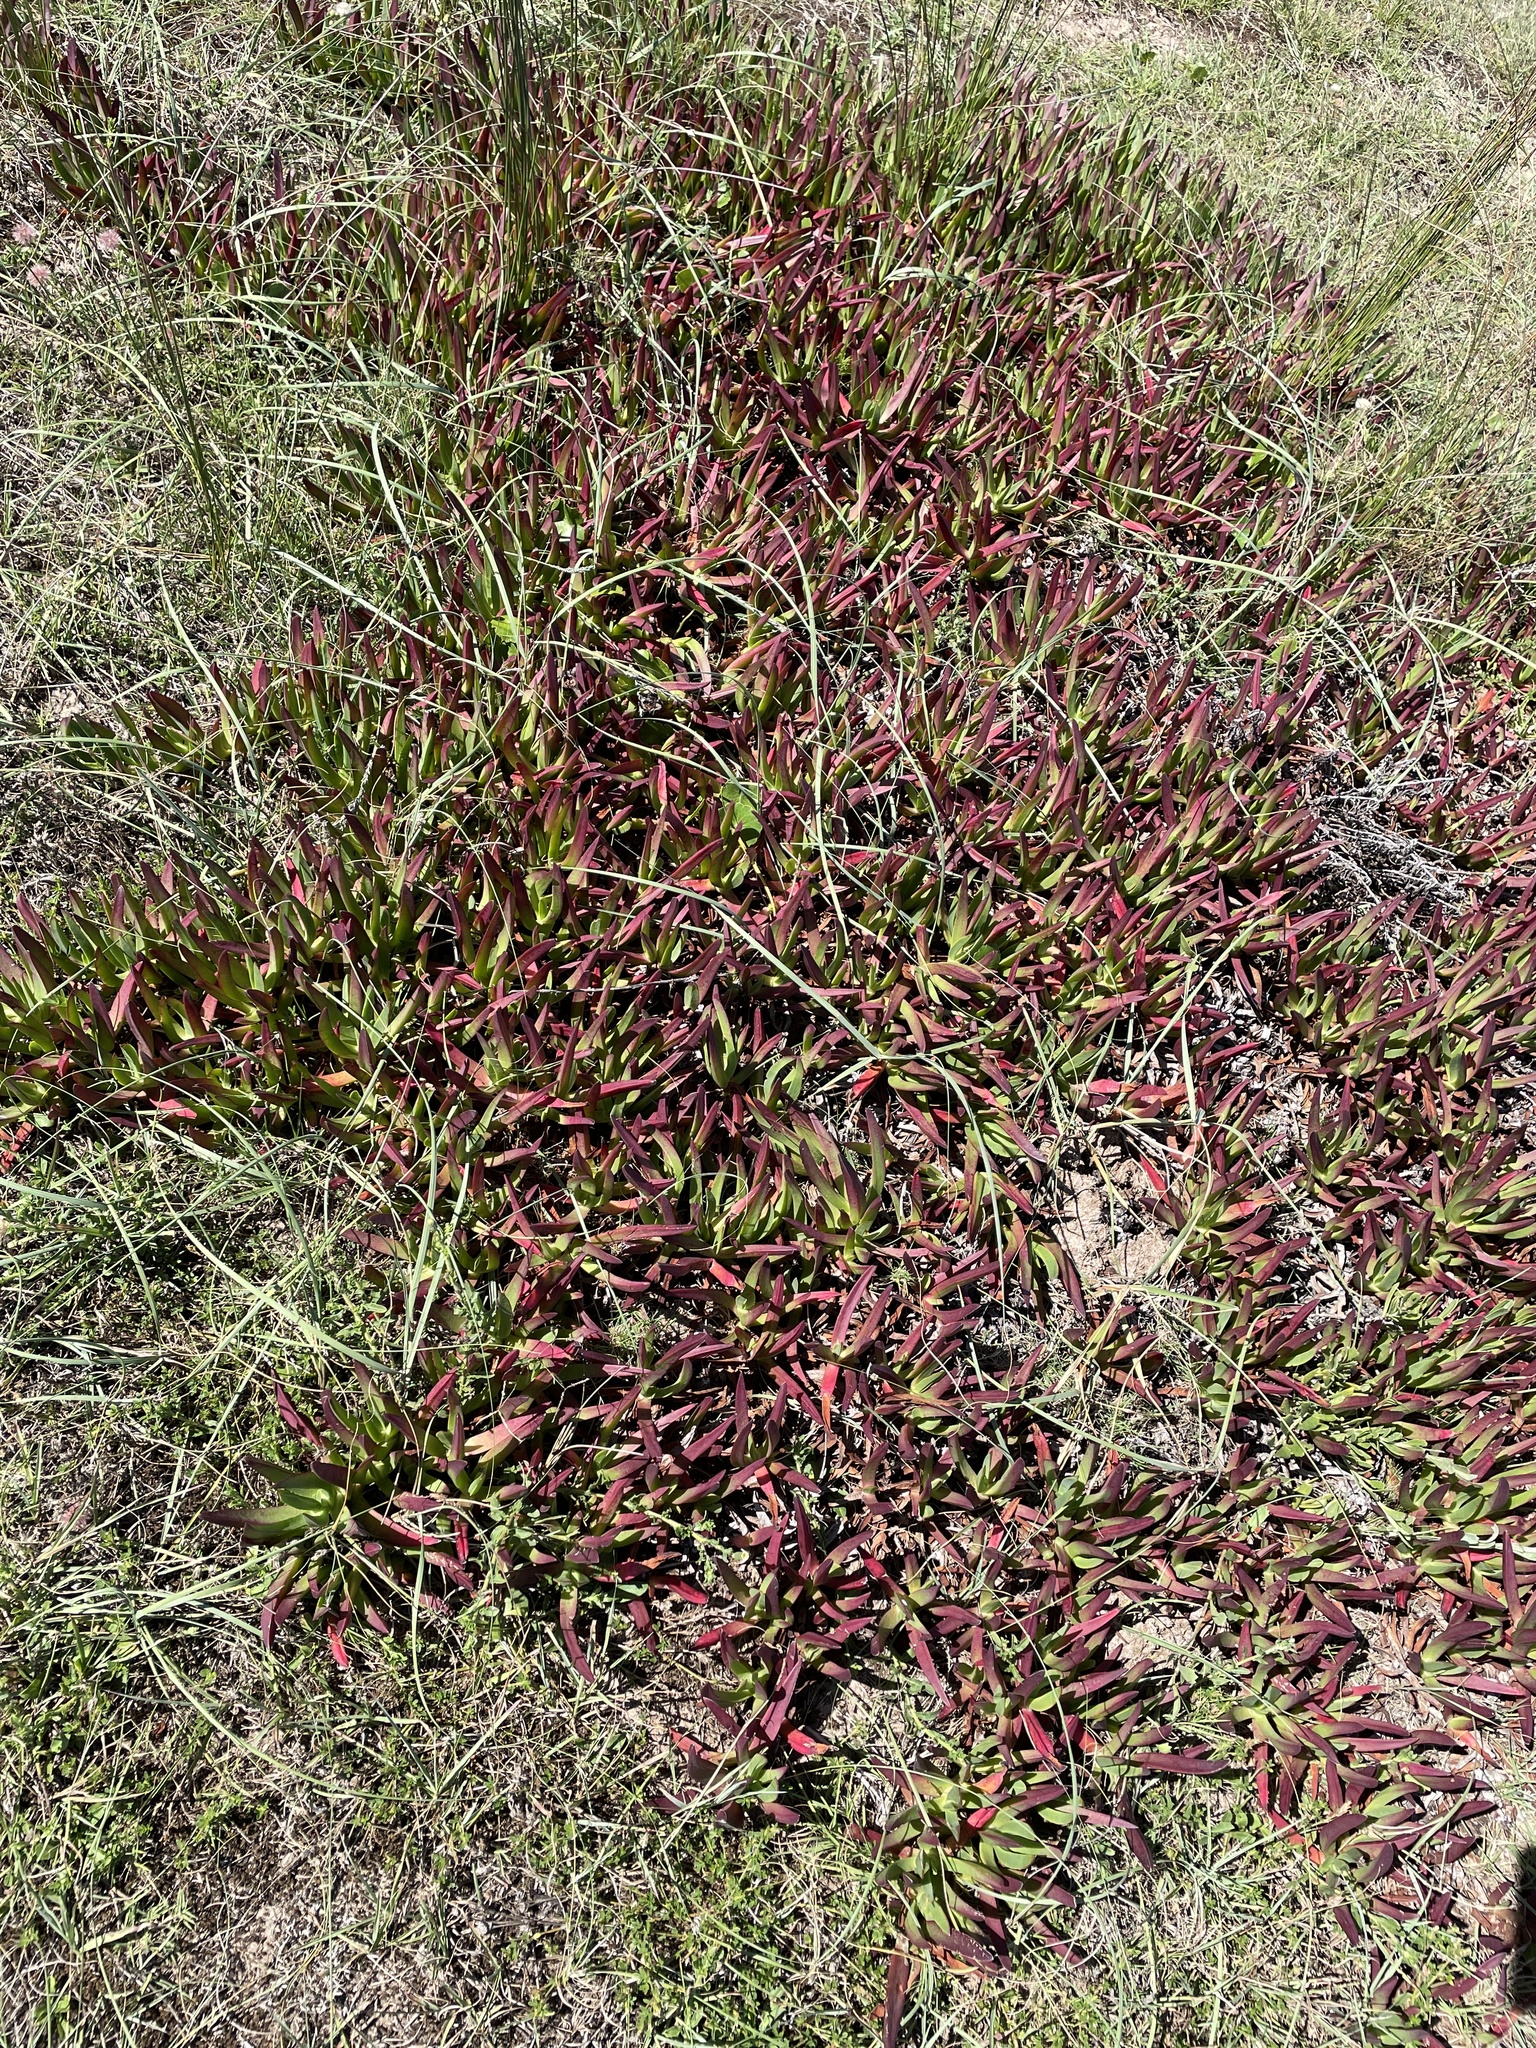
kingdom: Plantae
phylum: Tracheophyta
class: Magnoliopsida
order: Caryophyllales
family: Aizoaceae
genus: Carpobrotus
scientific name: Carpobrotus edulis
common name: Hottentot-fig
